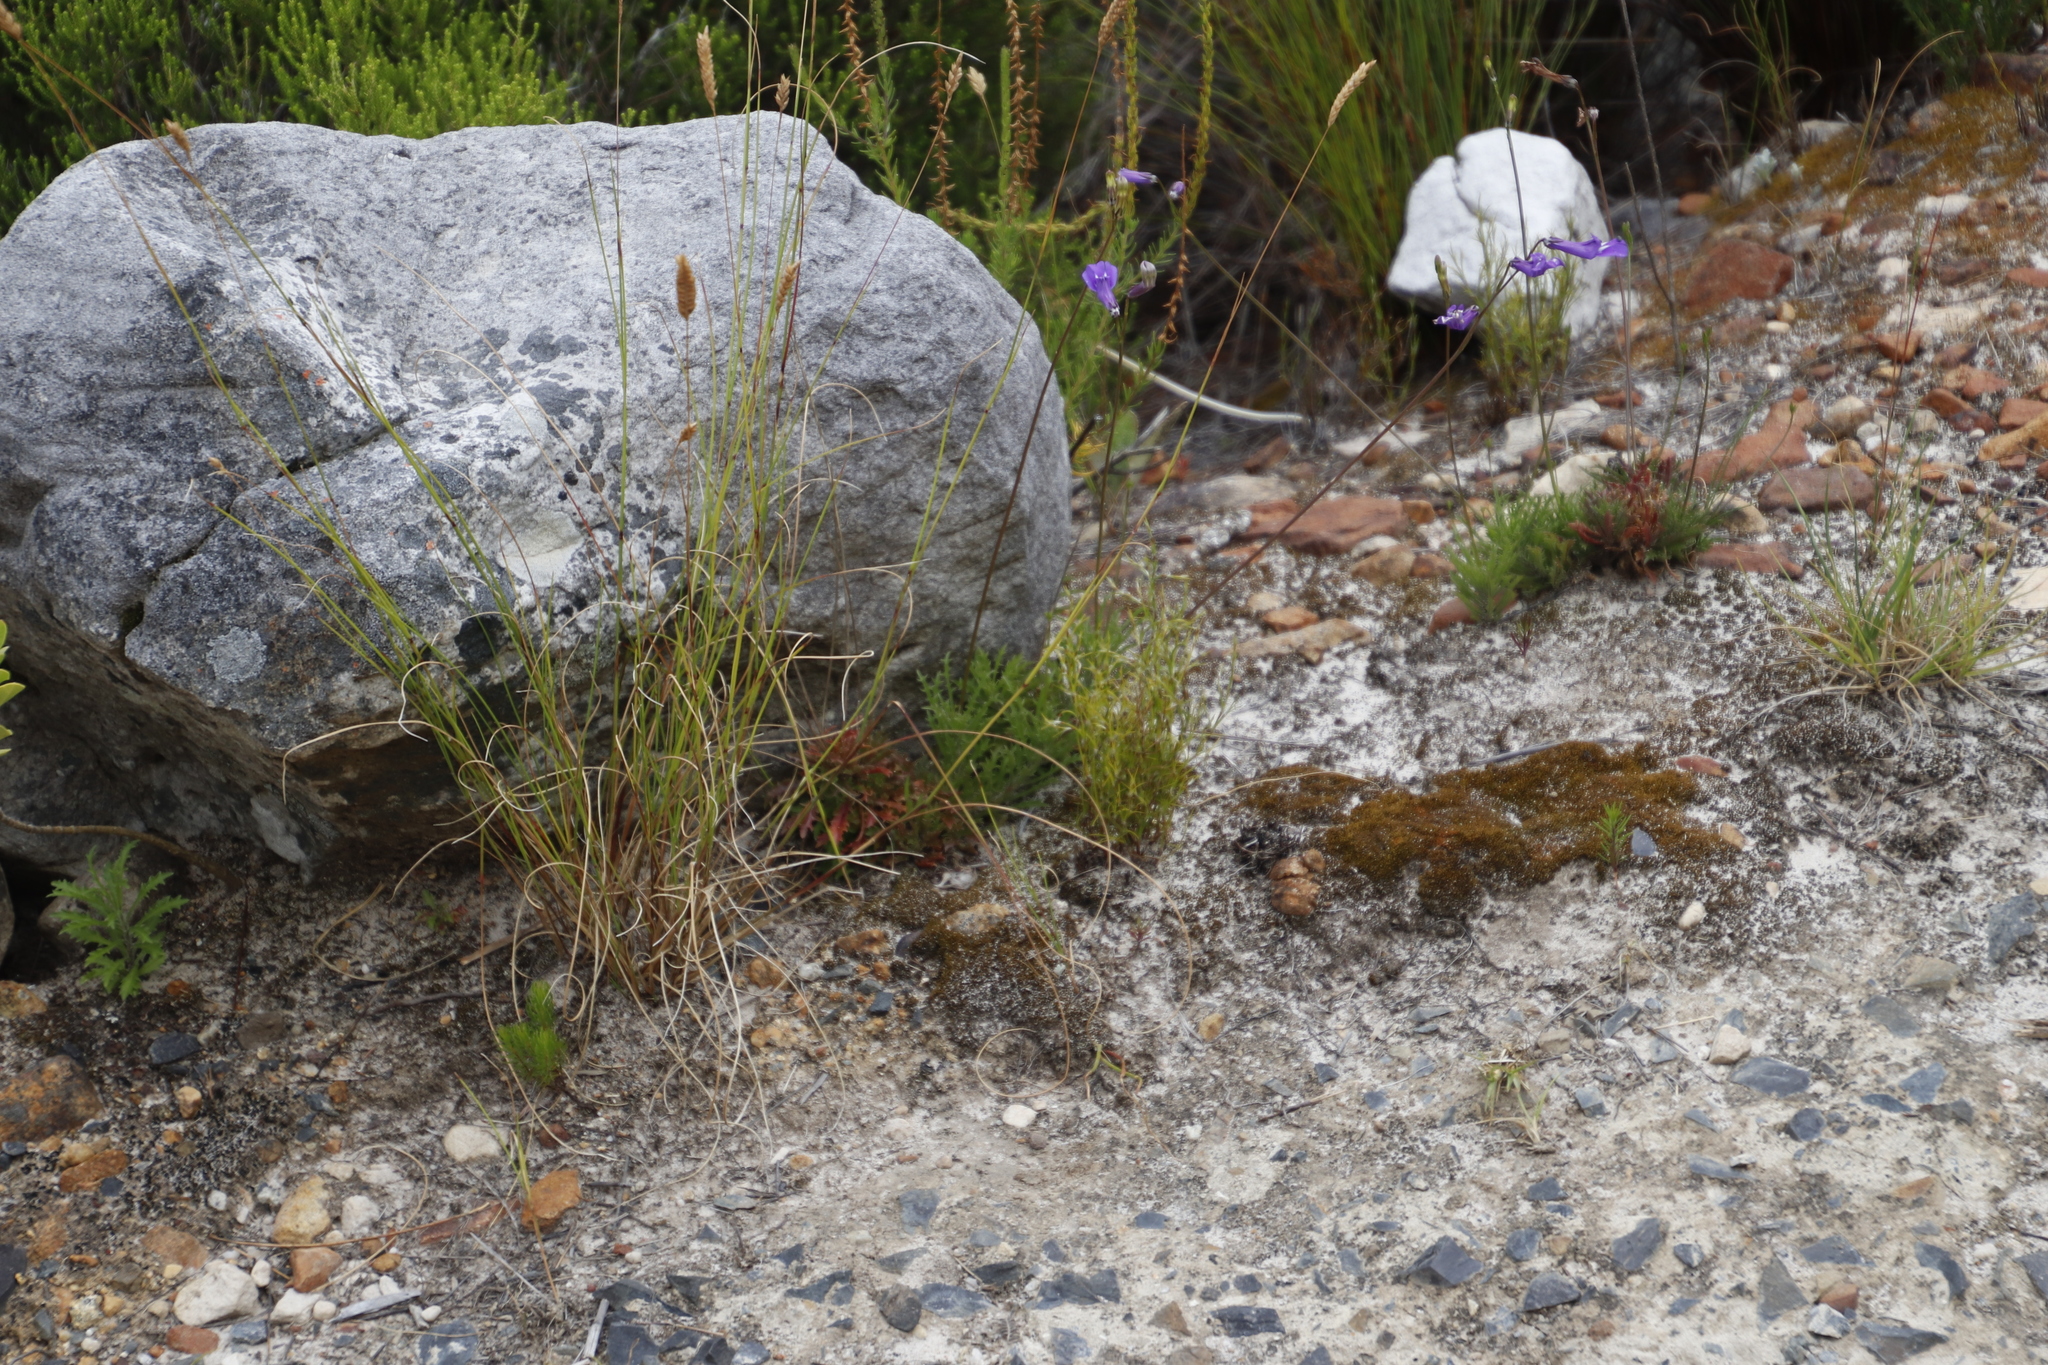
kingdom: Plantae
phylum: Tracheophyta
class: Magnoliopsida
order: Asterales
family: Campanulaceae
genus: Lobelia
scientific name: Lobelia coronopifolia
